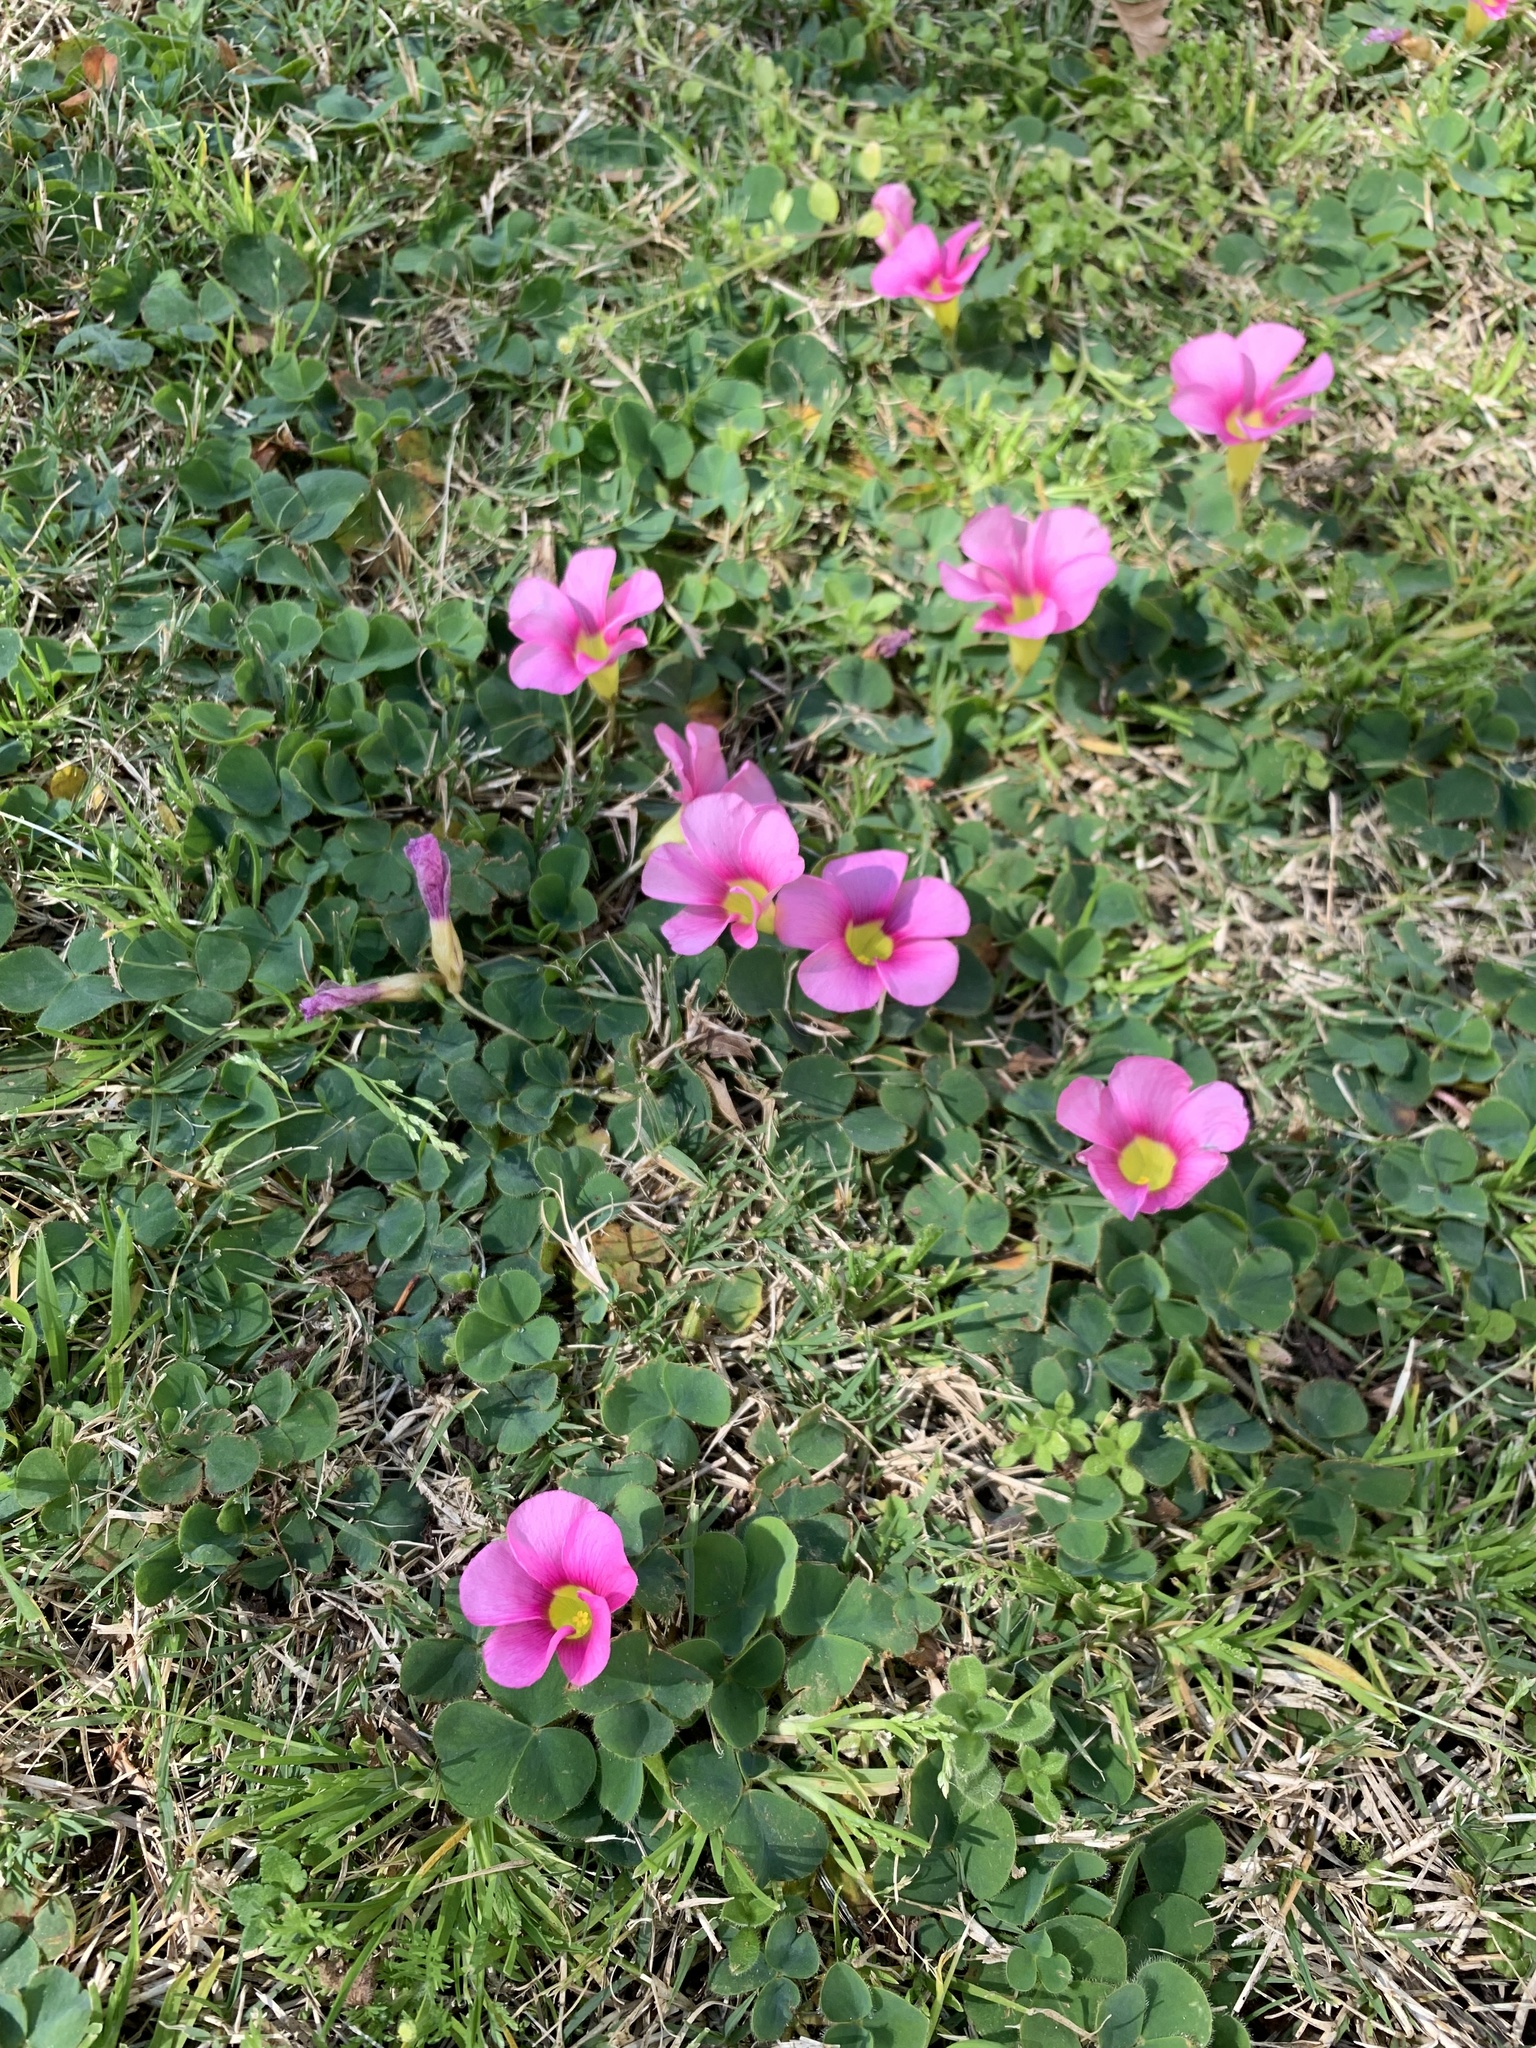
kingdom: Plantae
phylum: Tracheophyta
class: Magnoliopsida
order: Oxalidales
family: Oxalidaceae
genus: Oxalis
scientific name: Oxalis purpurea
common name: Purple woodsorrel
